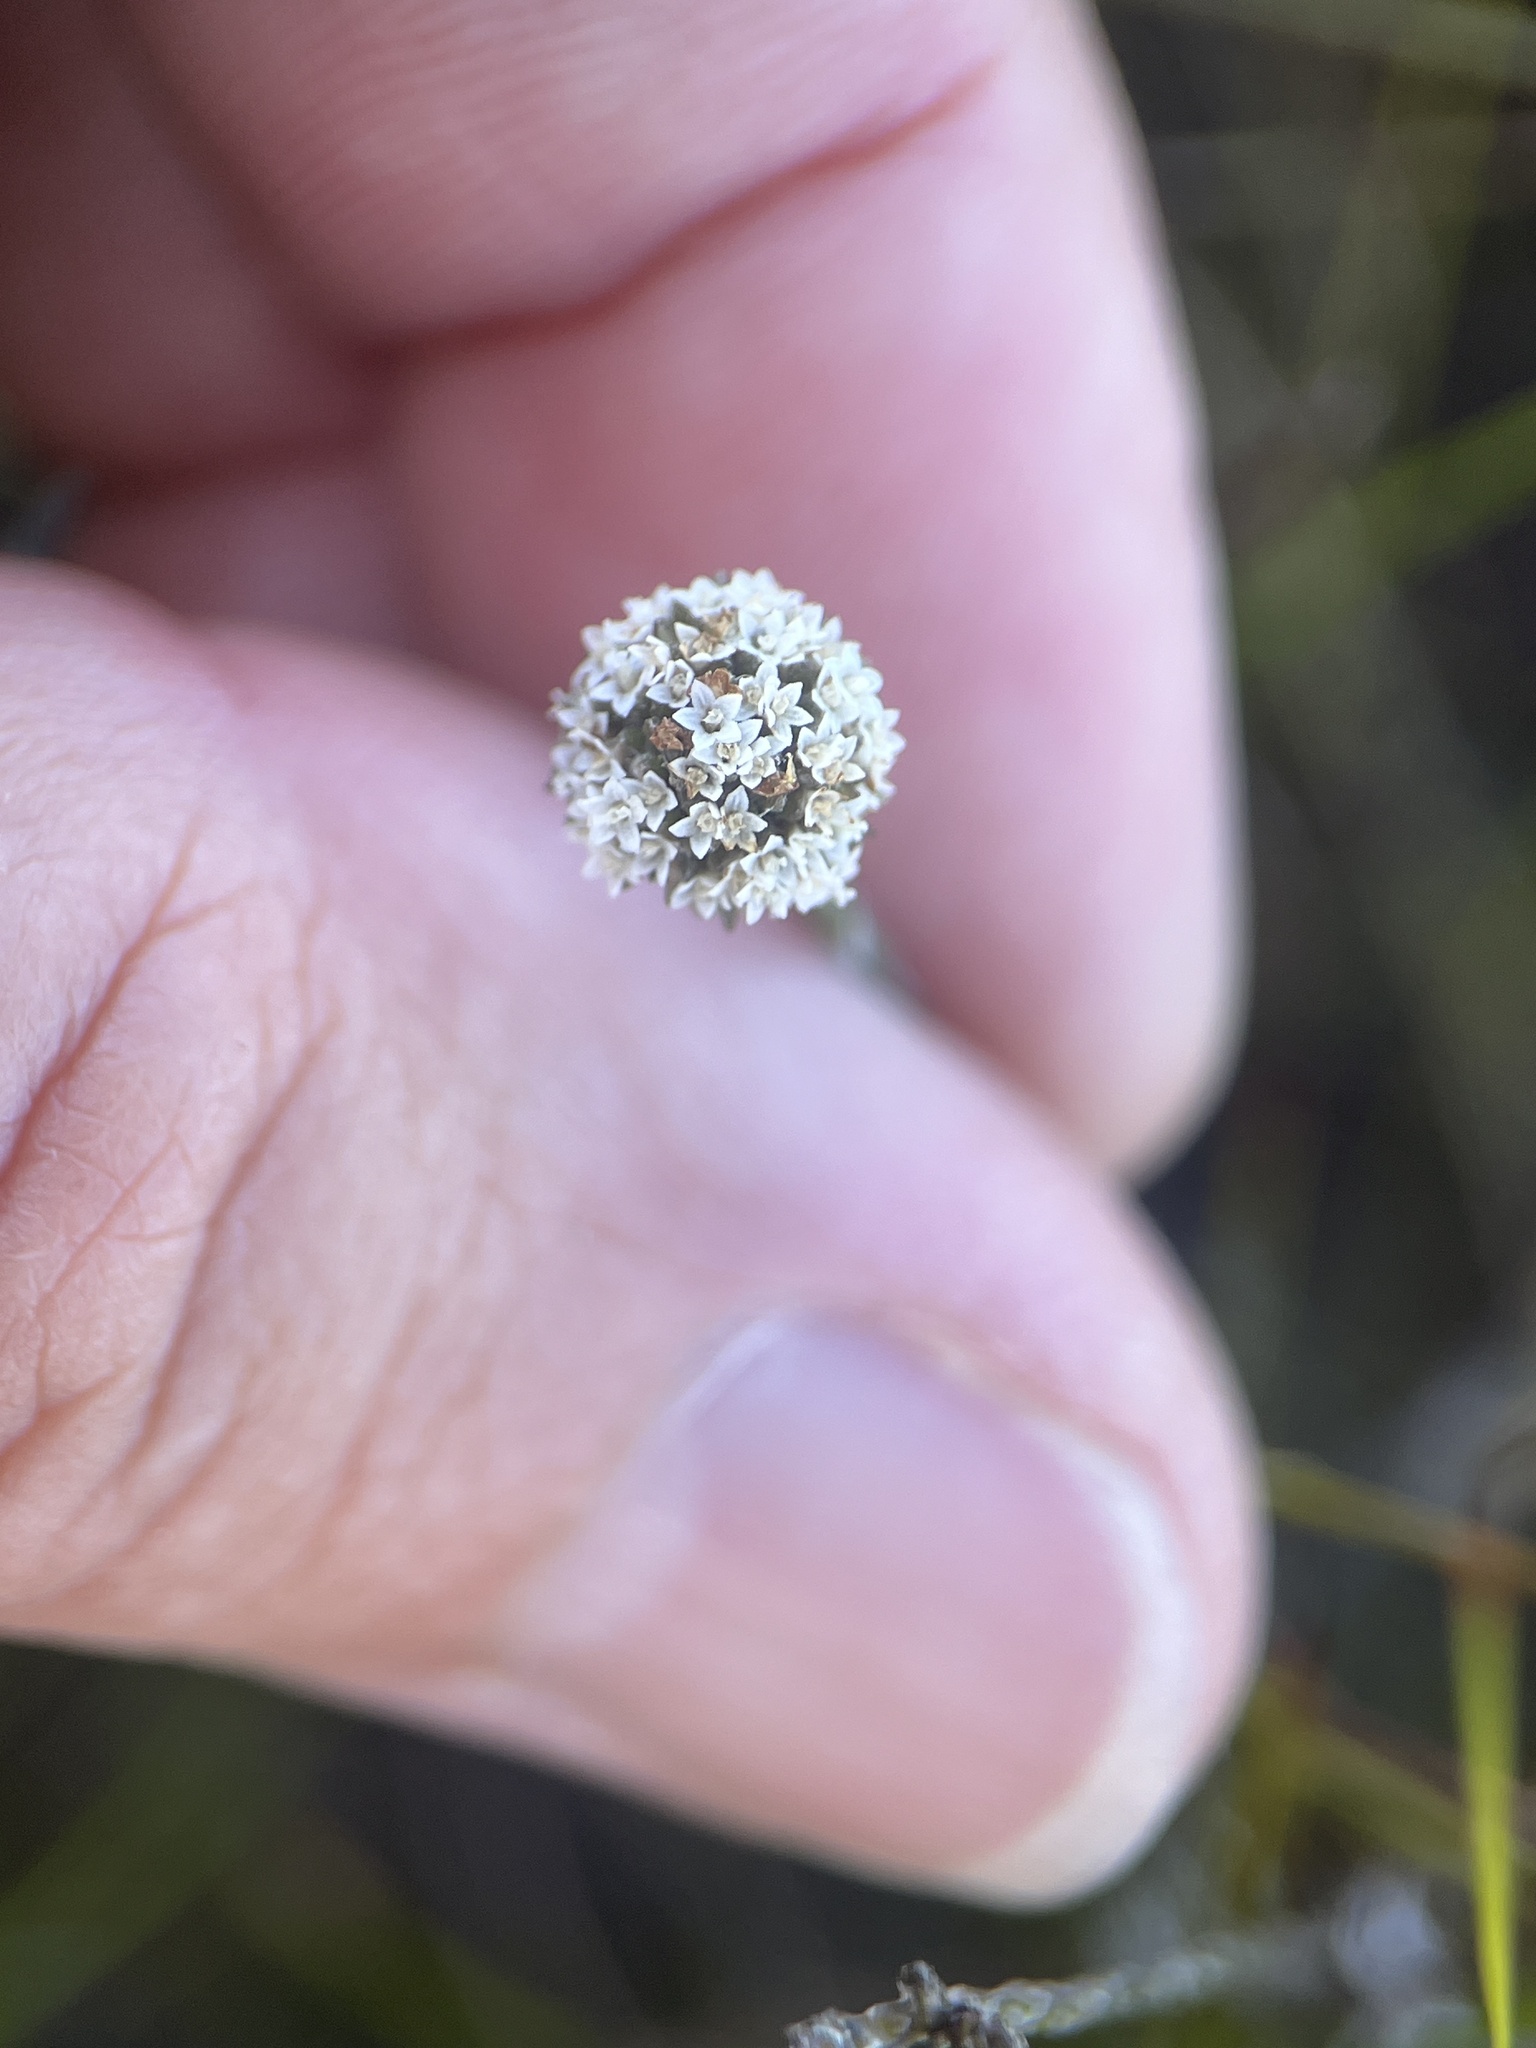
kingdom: Plantae
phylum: Tracheophyta
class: Magnoliopsida
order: Asterales
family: Asteraceae
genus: Stoebe
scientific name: Stoebe schultzii
